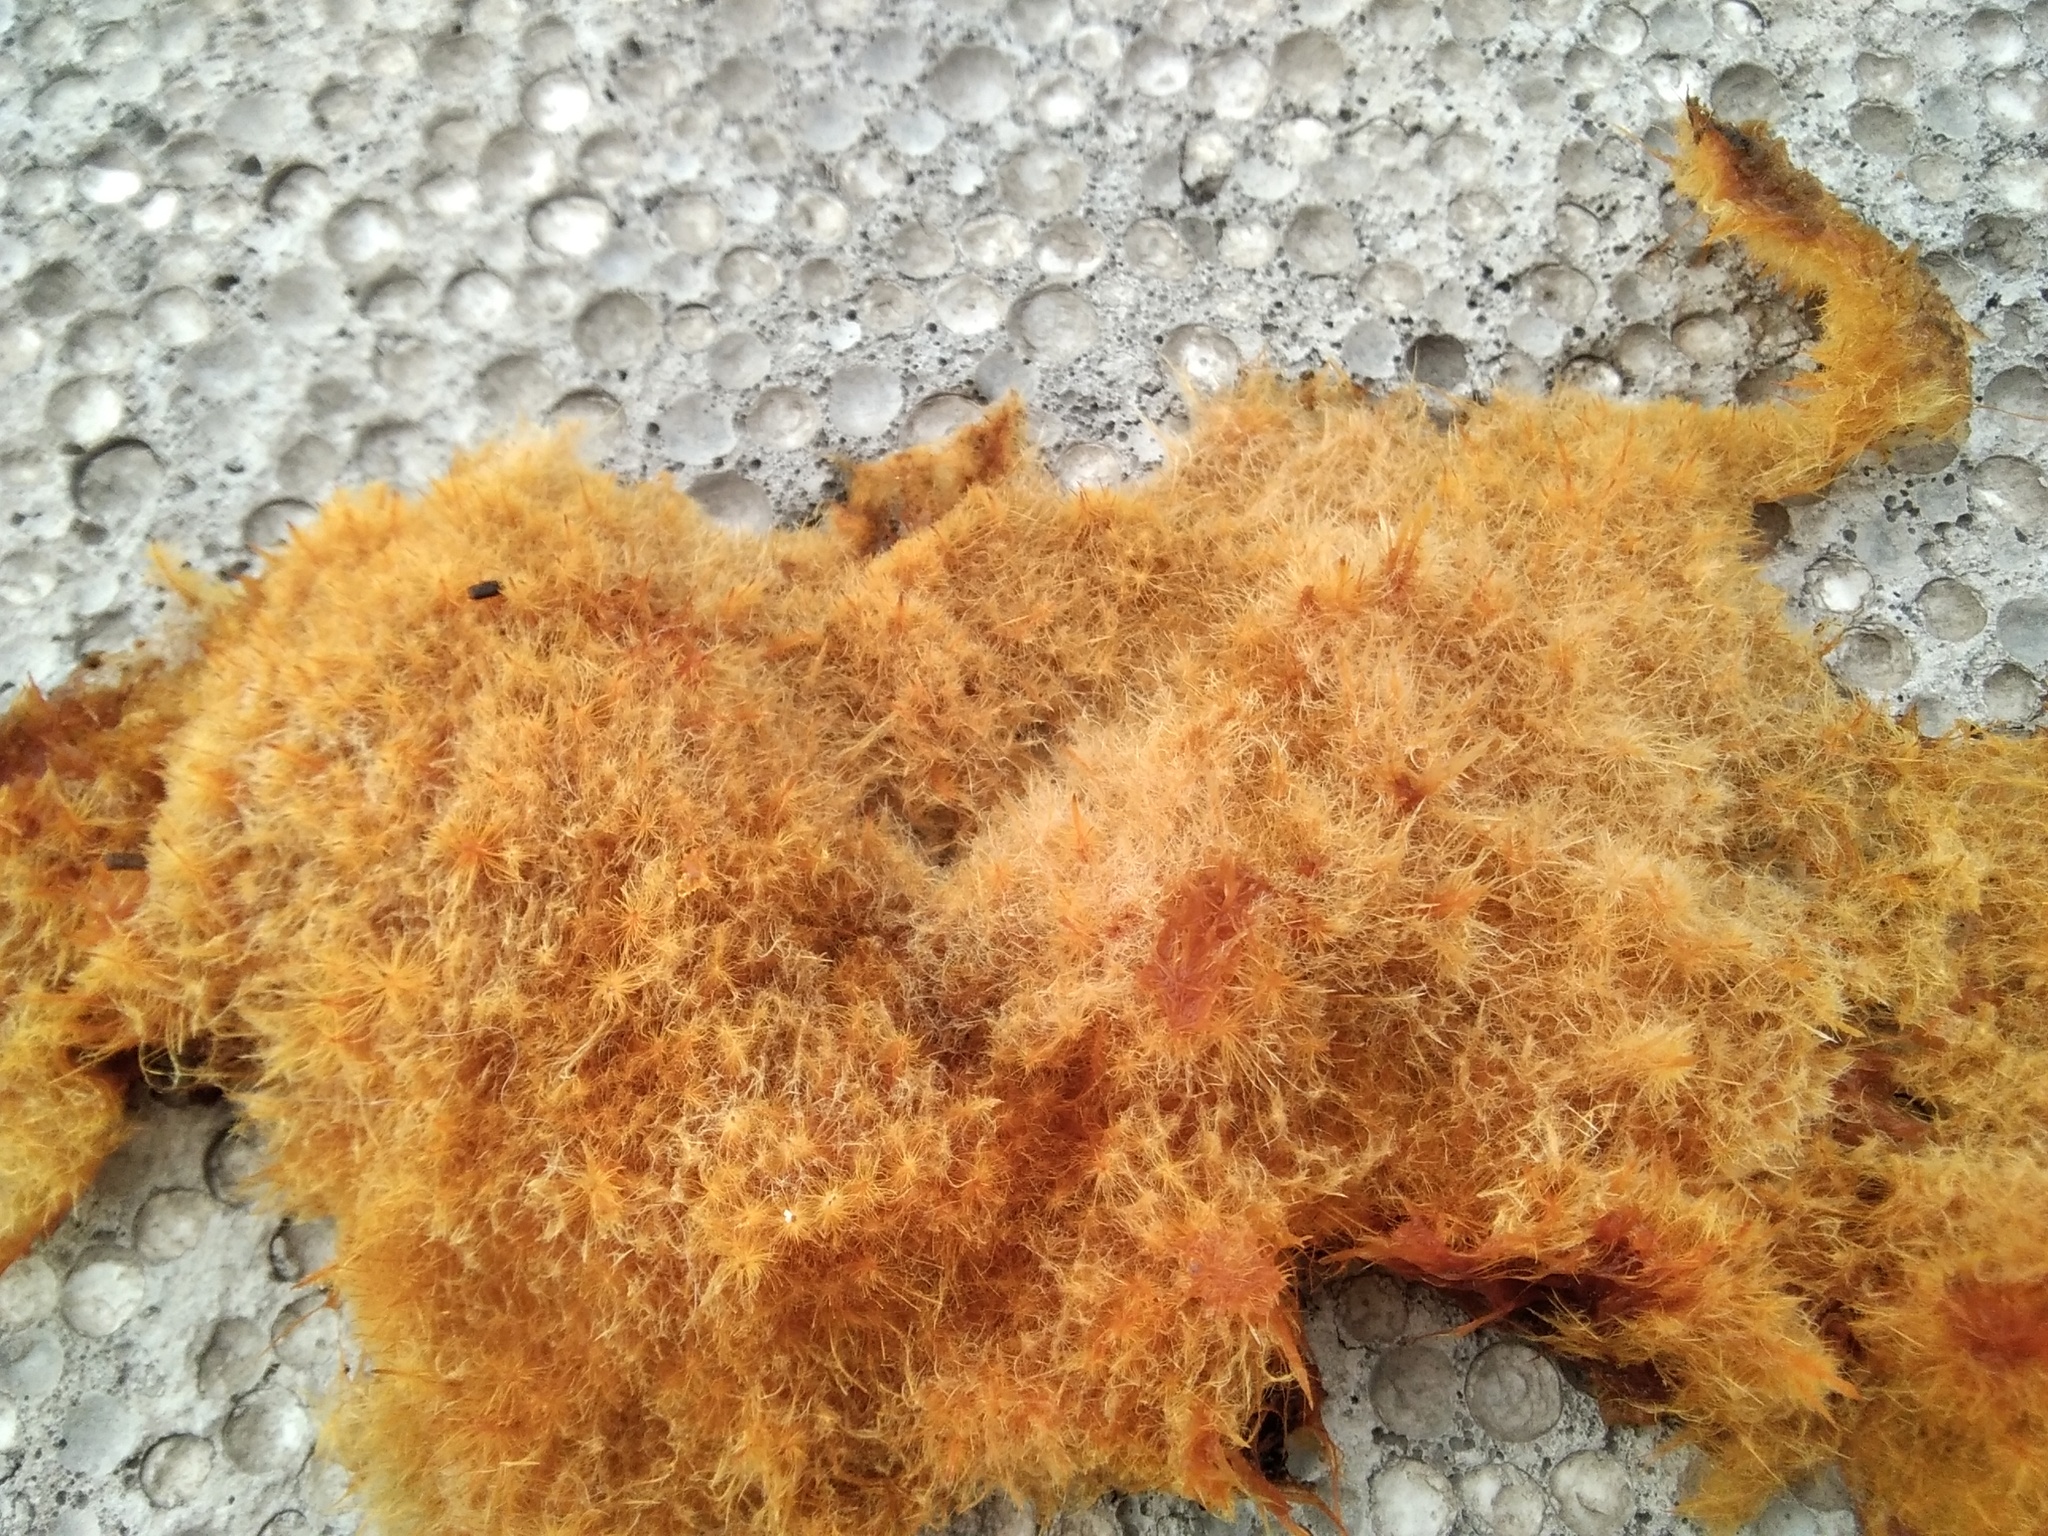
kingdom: Fungi
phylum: Basidiomycota
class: Agaricomycetes
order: Agaricales
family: Psathyrellaceae
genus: Coprinellus
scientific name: Coprinellus domesticus
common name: Firerug inkcap
